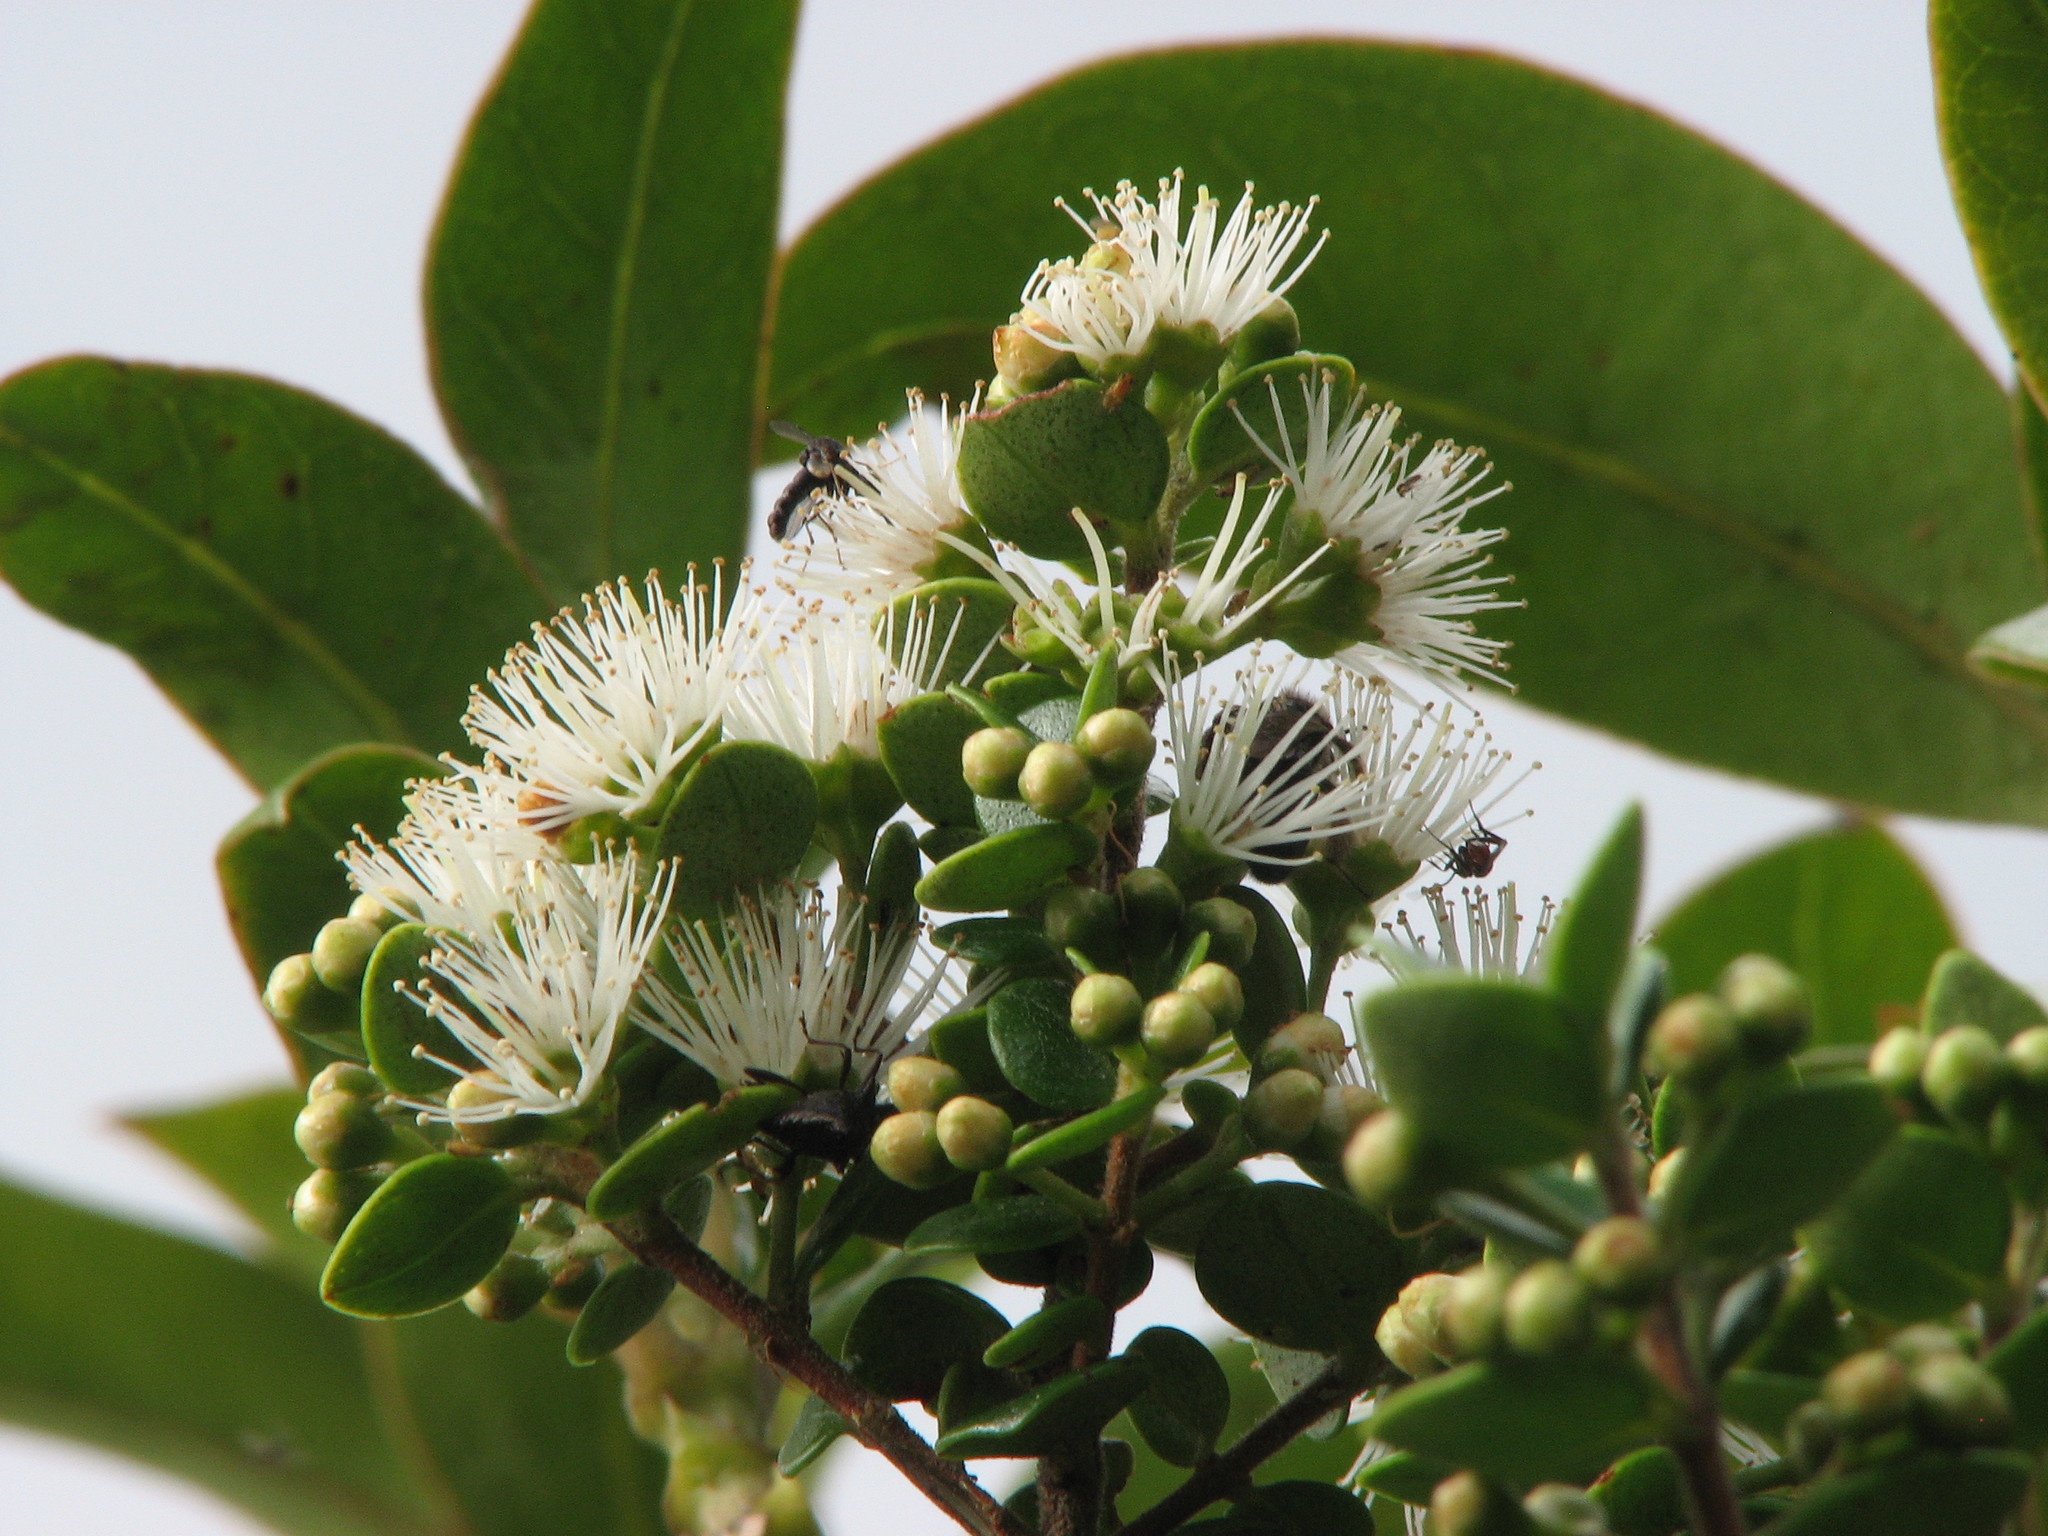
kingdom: Plantae
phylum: Tracheophyta
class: Magnoliopsida
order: Myrtales
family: Myrtaceae
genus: Metrosideros
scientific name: Metrosideros perforata
